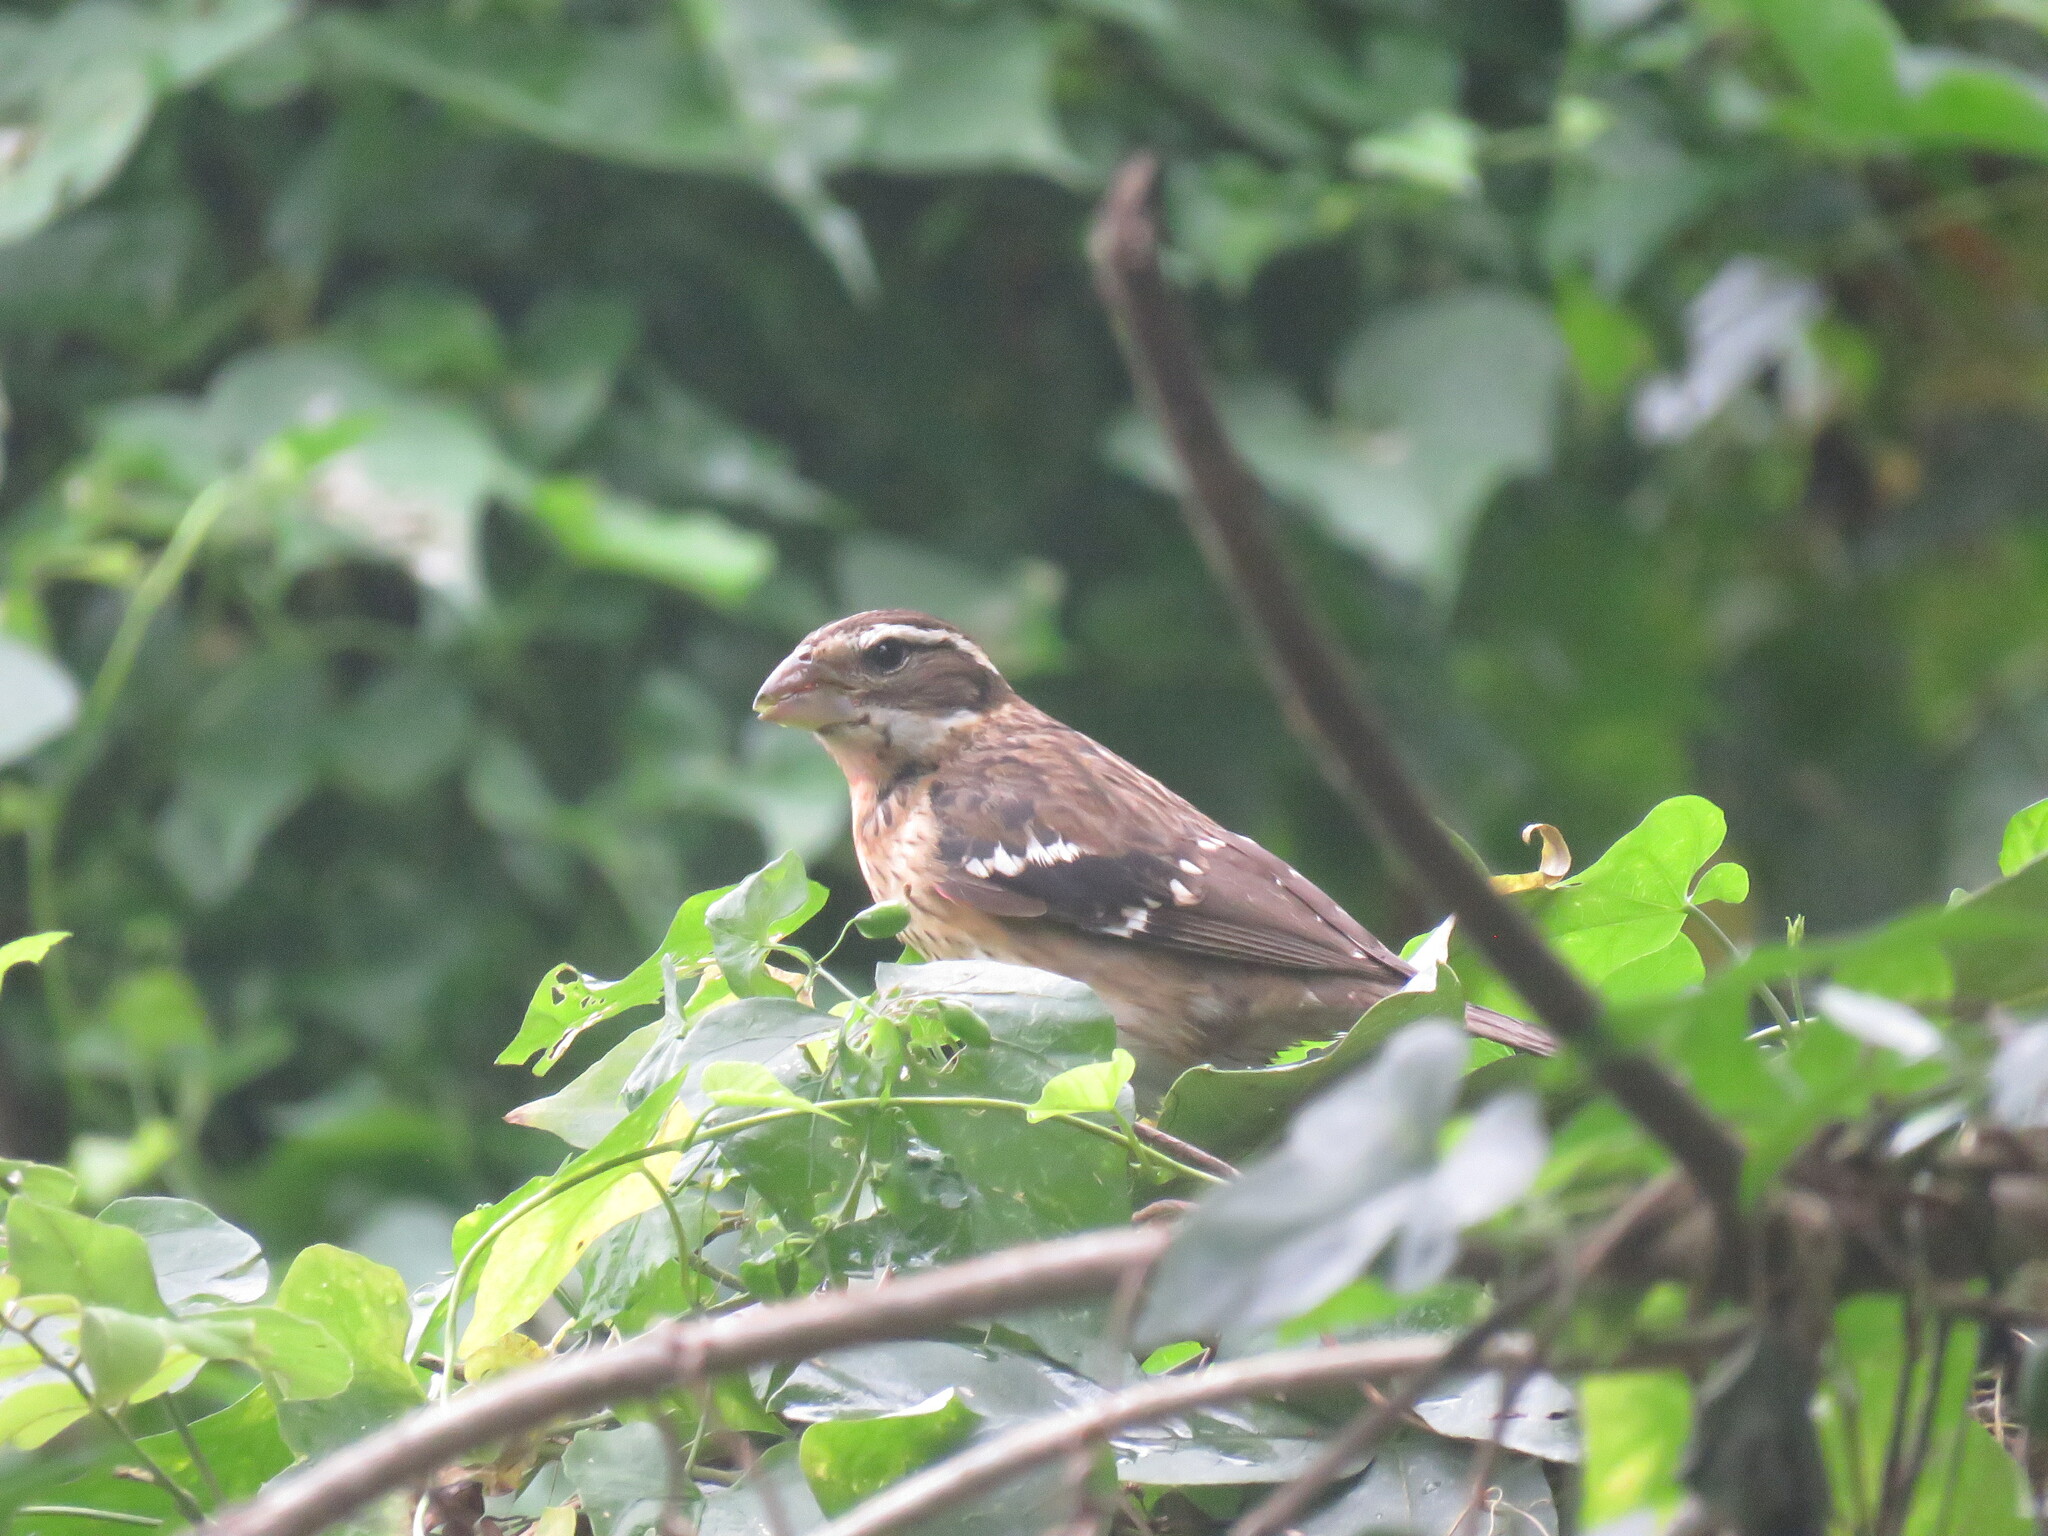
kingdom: Animalia
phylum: Chordata
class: Aves
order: Passeriformes
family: Cardinalidae
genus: Pheucticus
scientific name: Pheucticus ludovicianus
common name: Rose-breasted grosbeak
